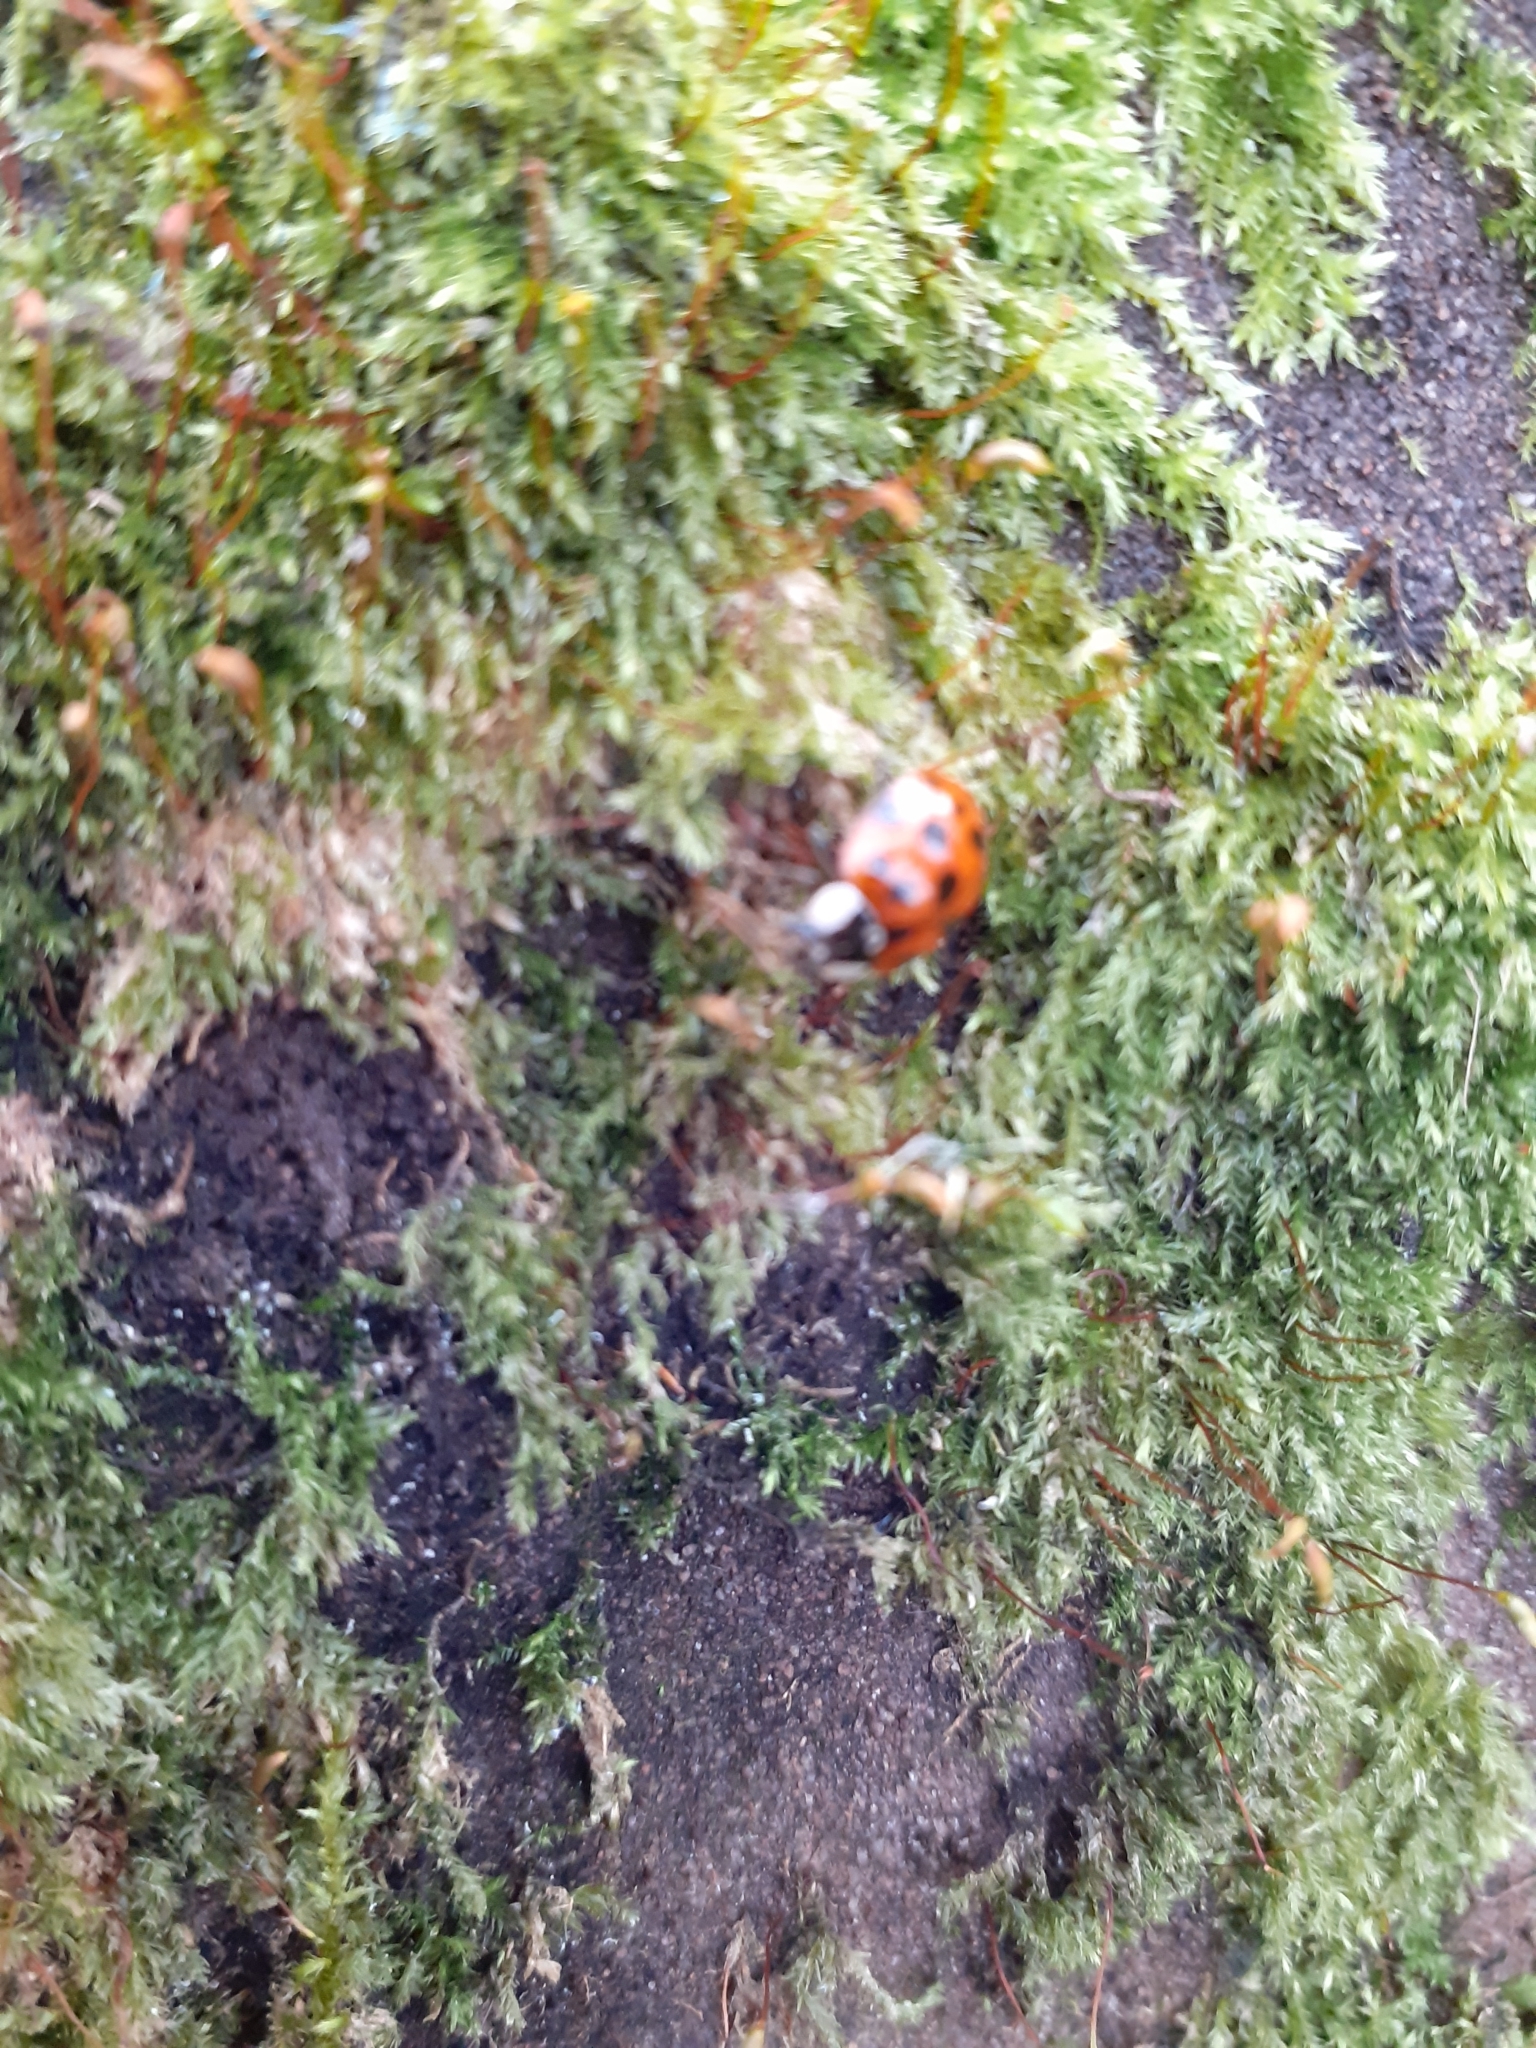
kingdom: Animalia
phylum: Arthropoda
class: Insecta
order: Coleoptera
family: Coccinellidae
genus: Harmonia
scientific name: Harmonia axyridis
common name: Harlequin ladybird
